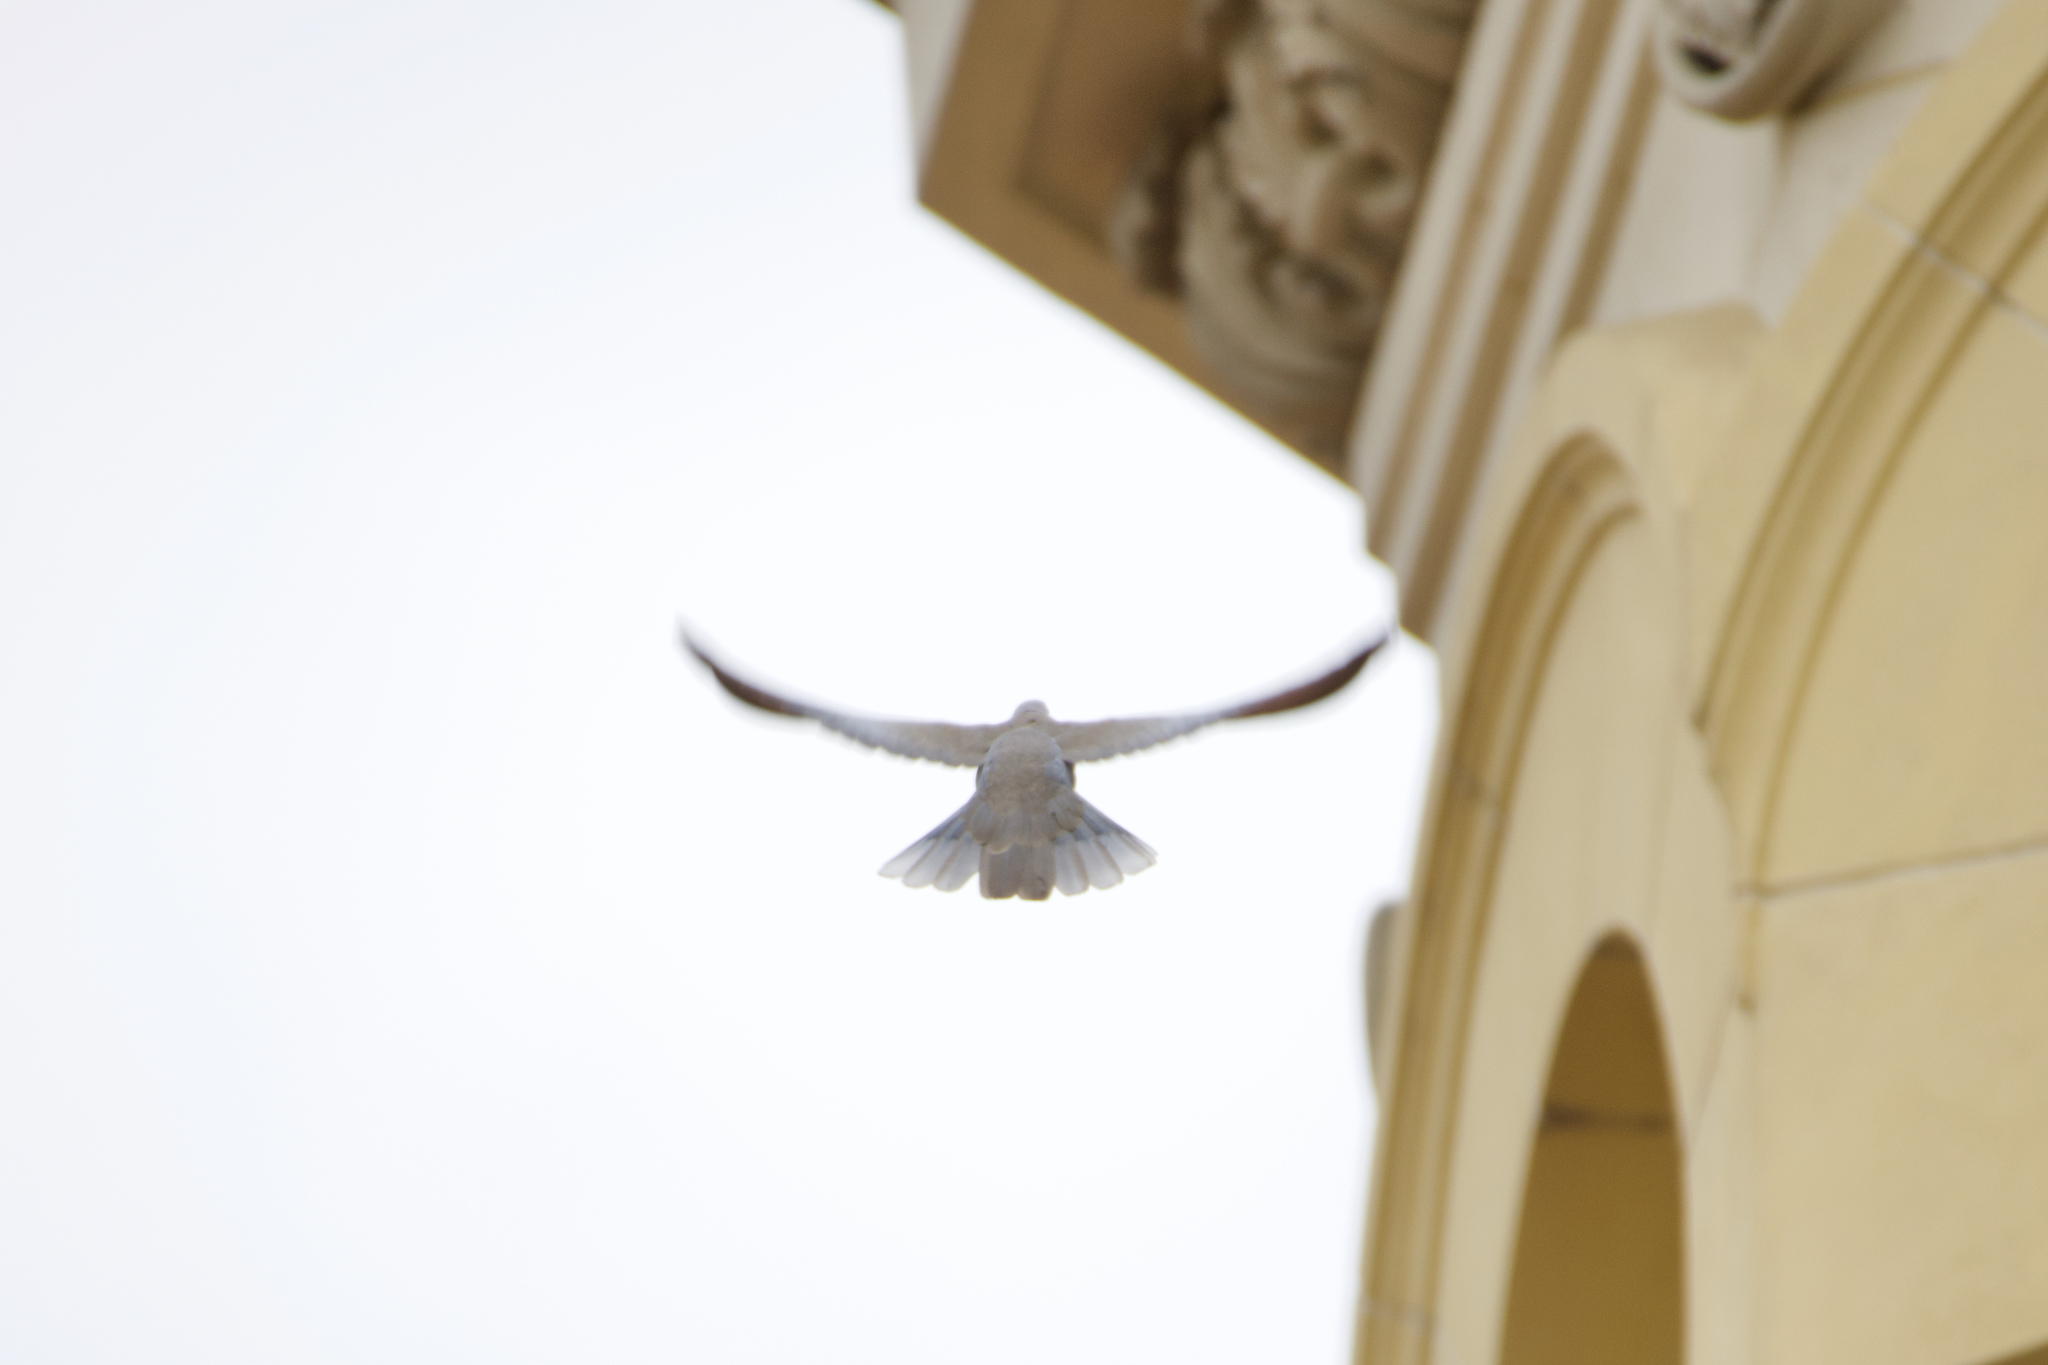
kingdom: Animalia
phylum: Chordata
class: Aves
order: Columbiformes
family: Columbidae
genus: Streptopelia
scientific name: Streptopelia decaocto
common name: Eurasian collared dove
